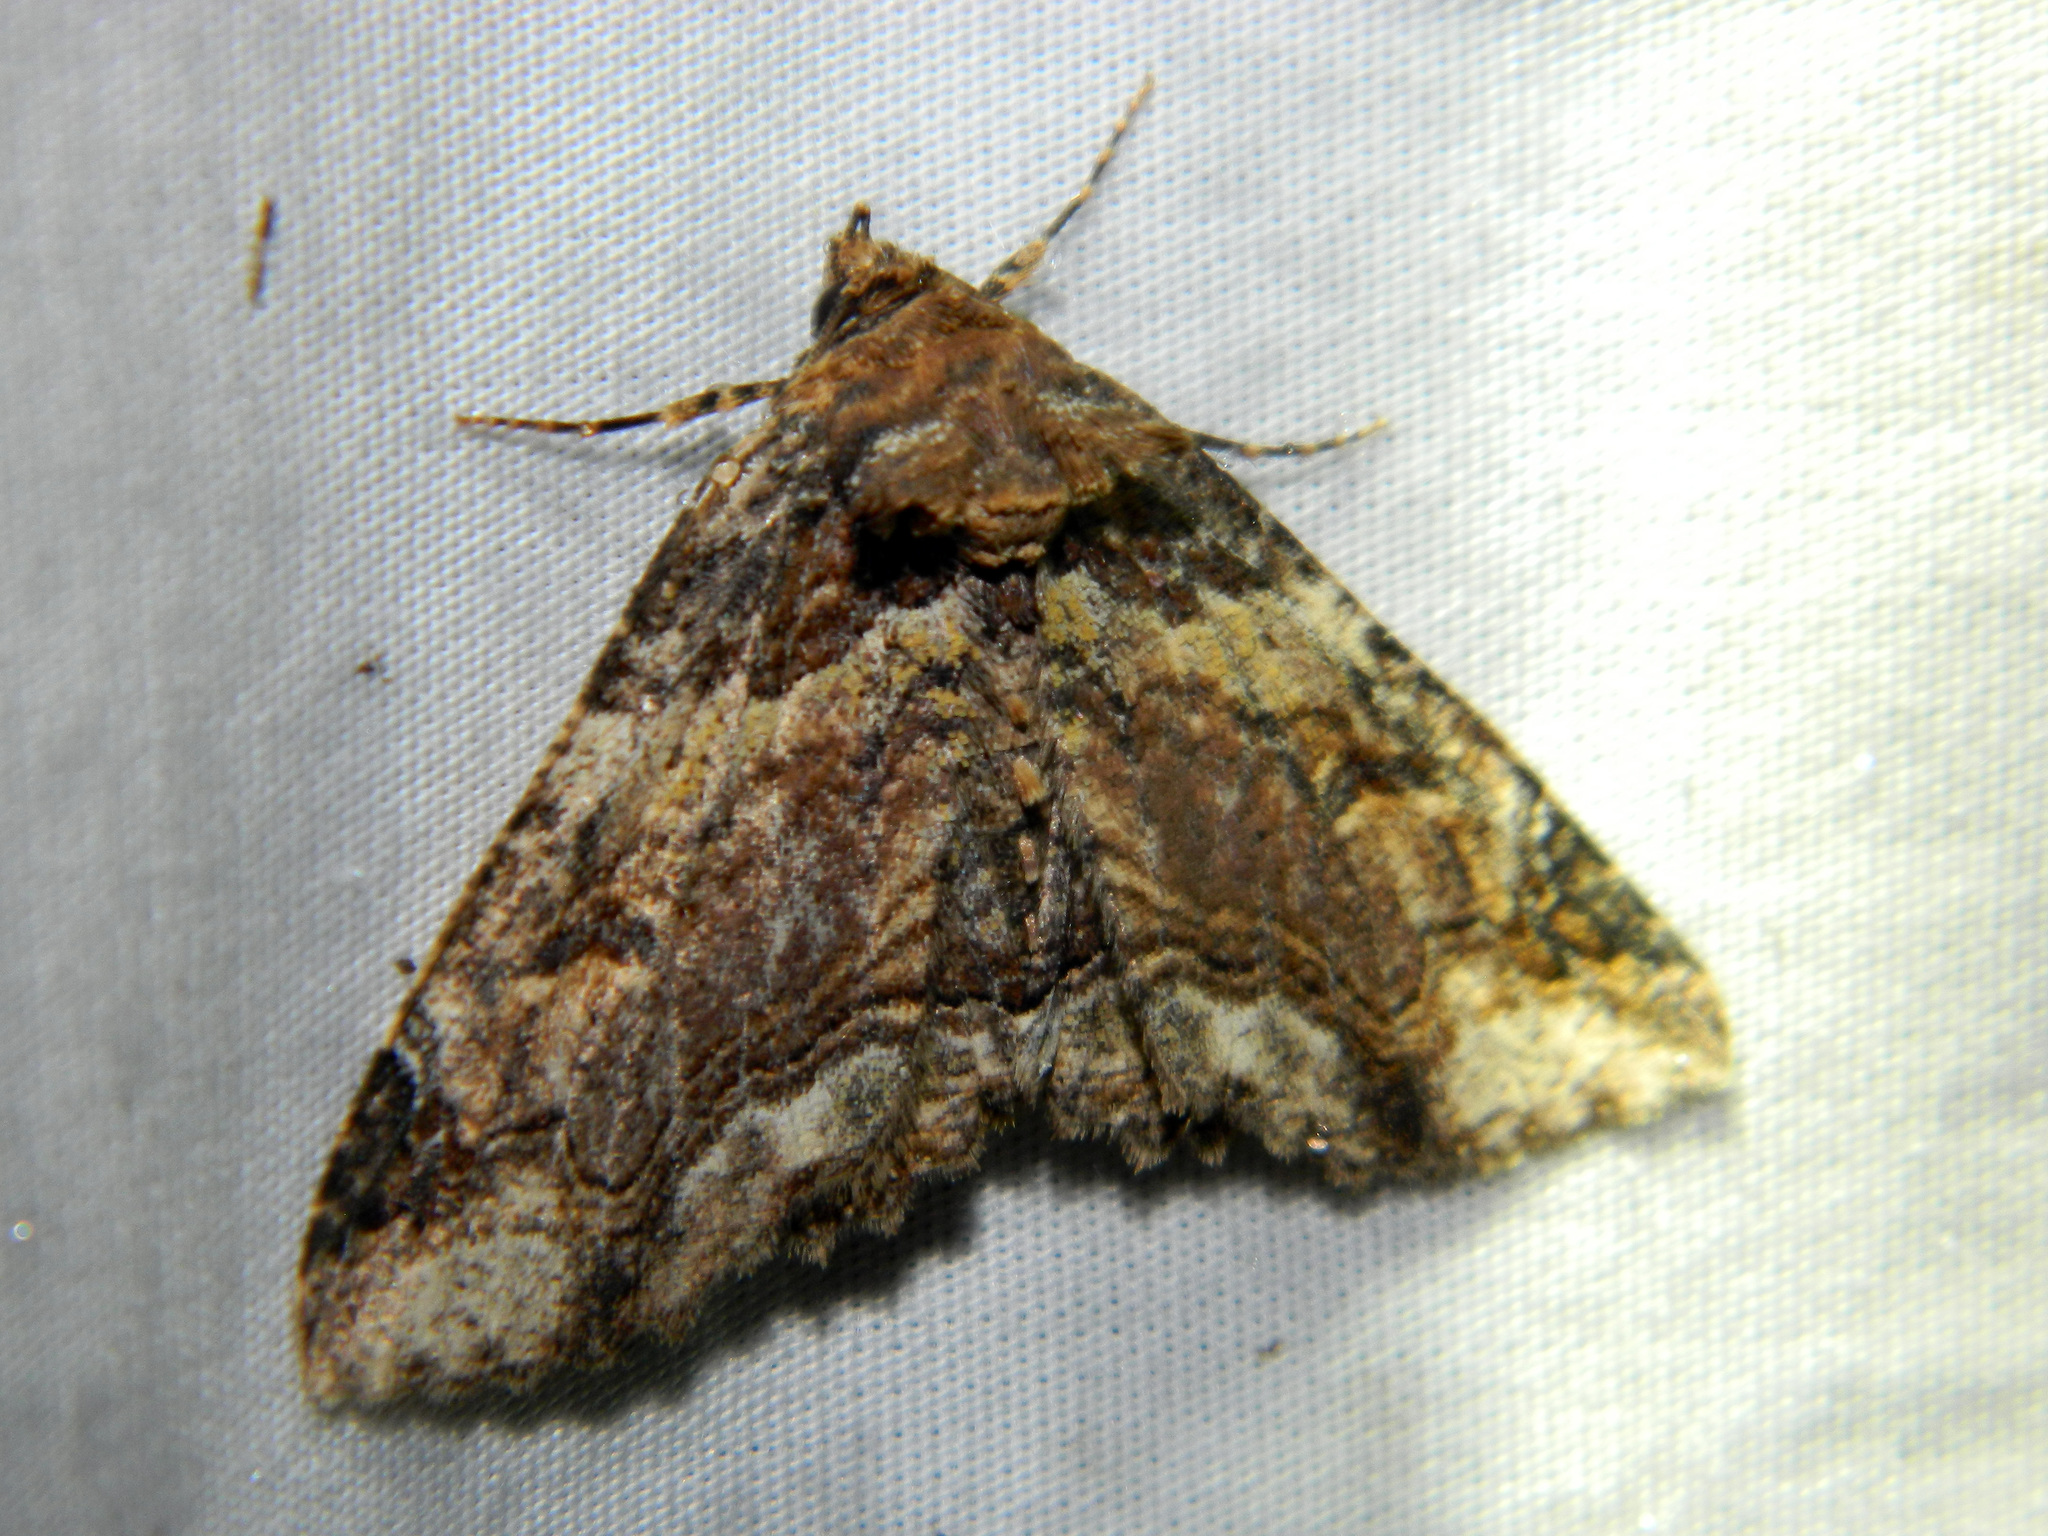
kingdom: Animalia
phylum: Arthropoda
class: Insecta
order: Lepidoptera
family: Erebidae
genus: Zale
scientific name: Zale minerea
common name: Colorful zale moth
